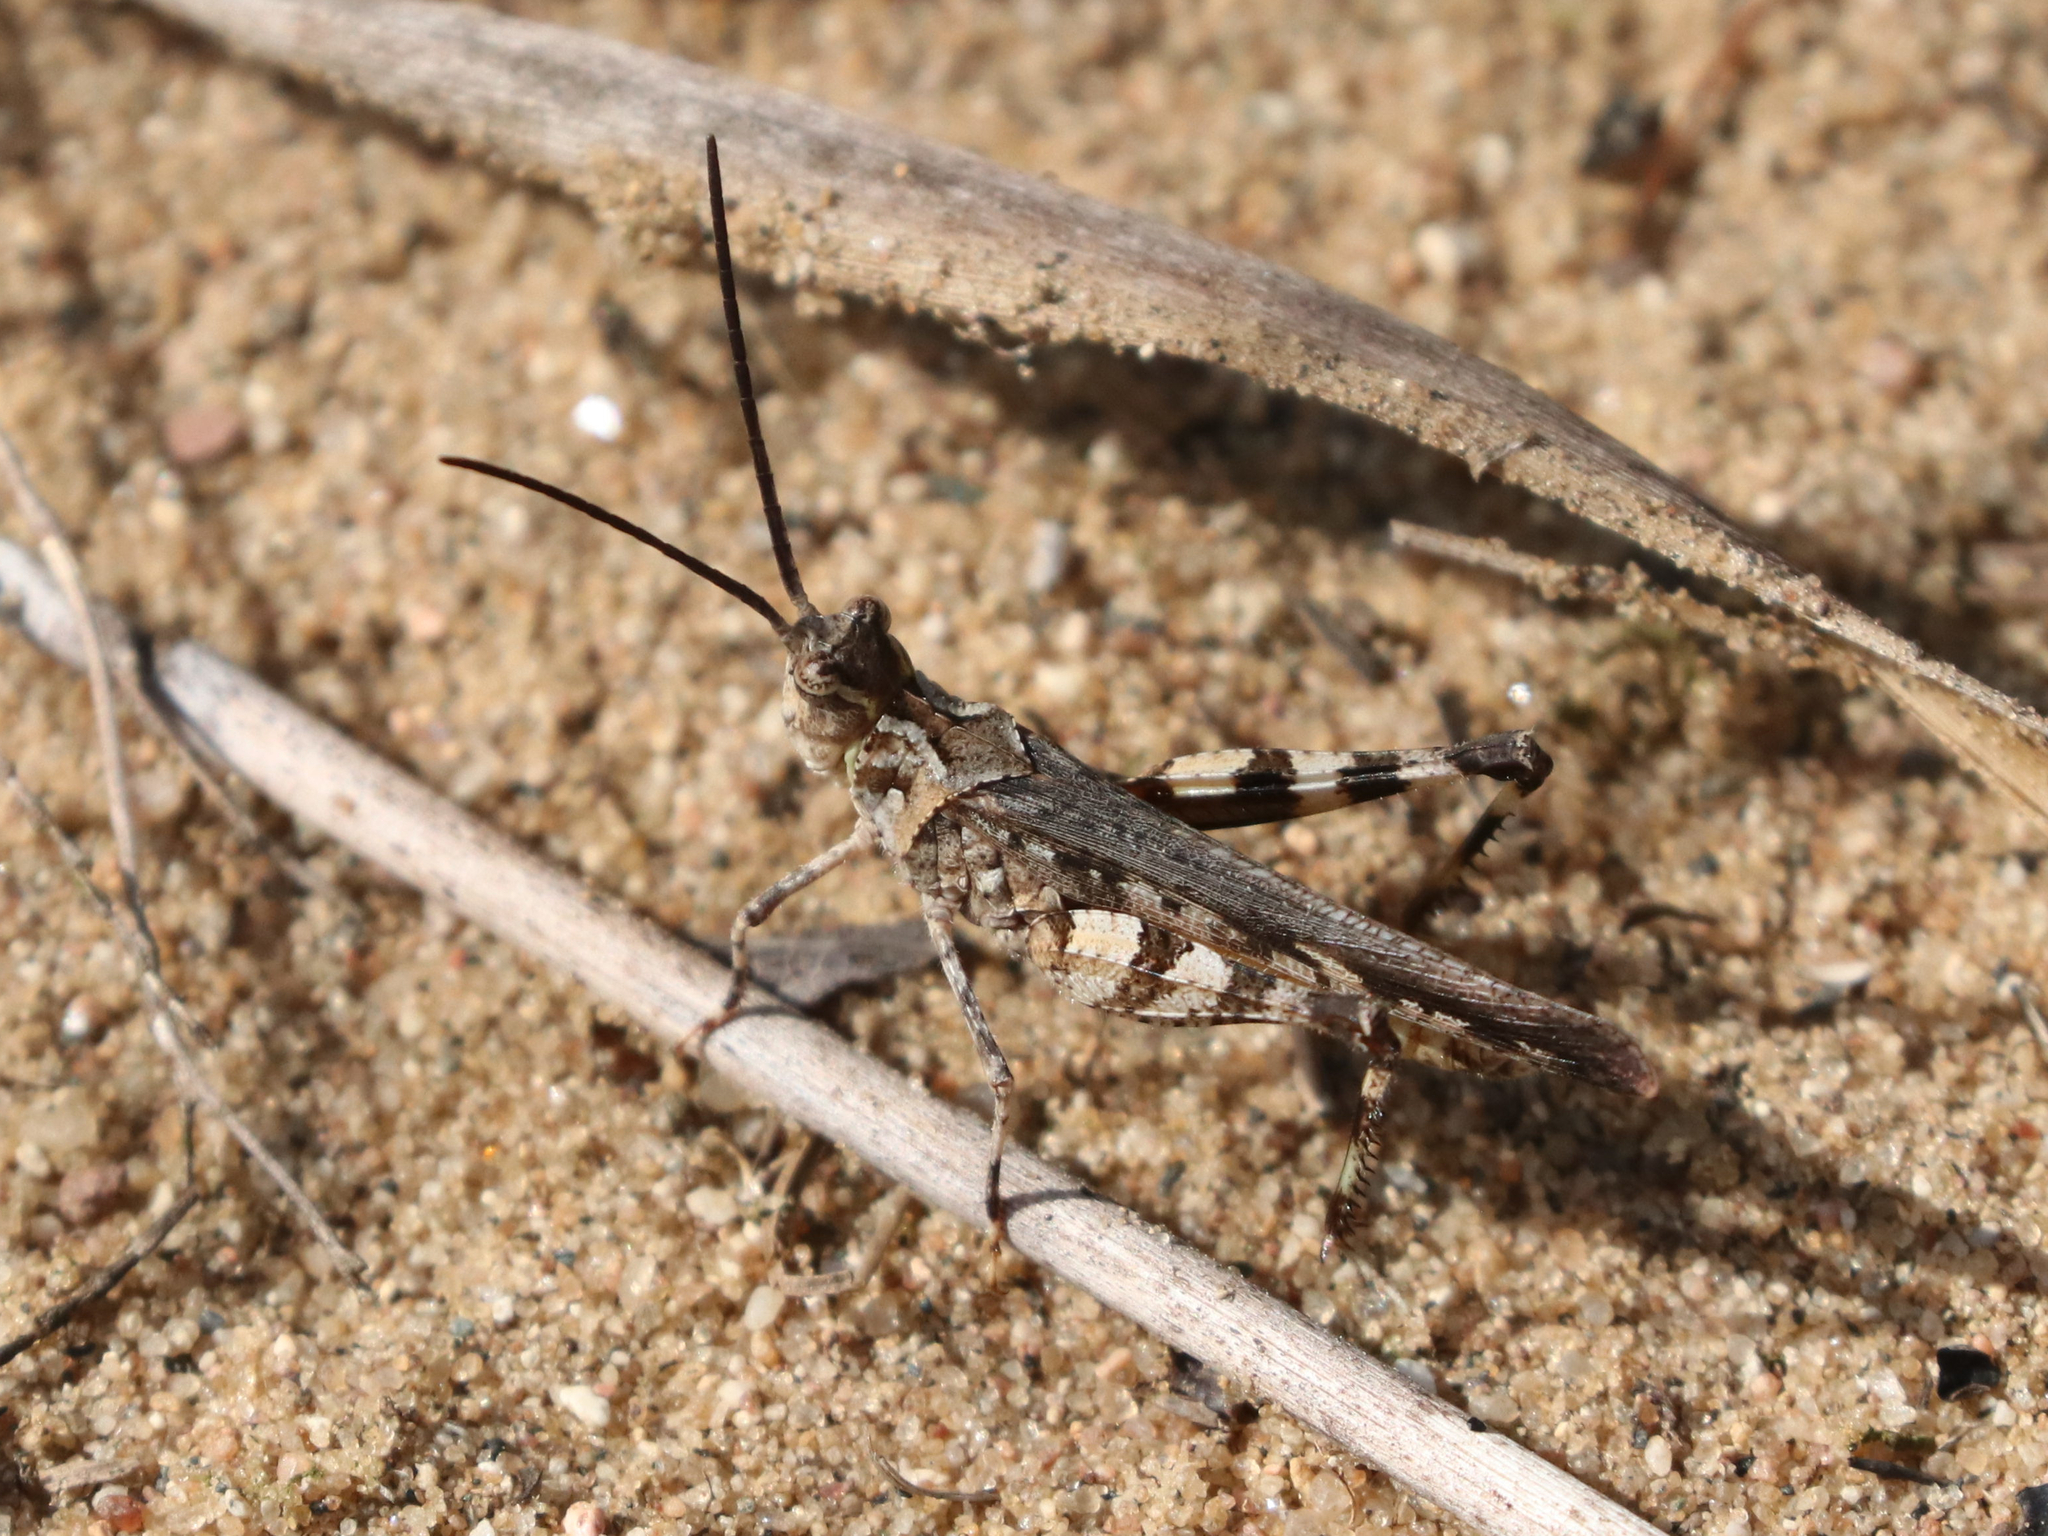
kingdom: Animalia
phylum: Arthropoda
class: Insecta
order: Orthoptera
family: Acrididae
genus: Psinidia
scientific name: Psinidia fenestralis
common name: Long-horned locust
